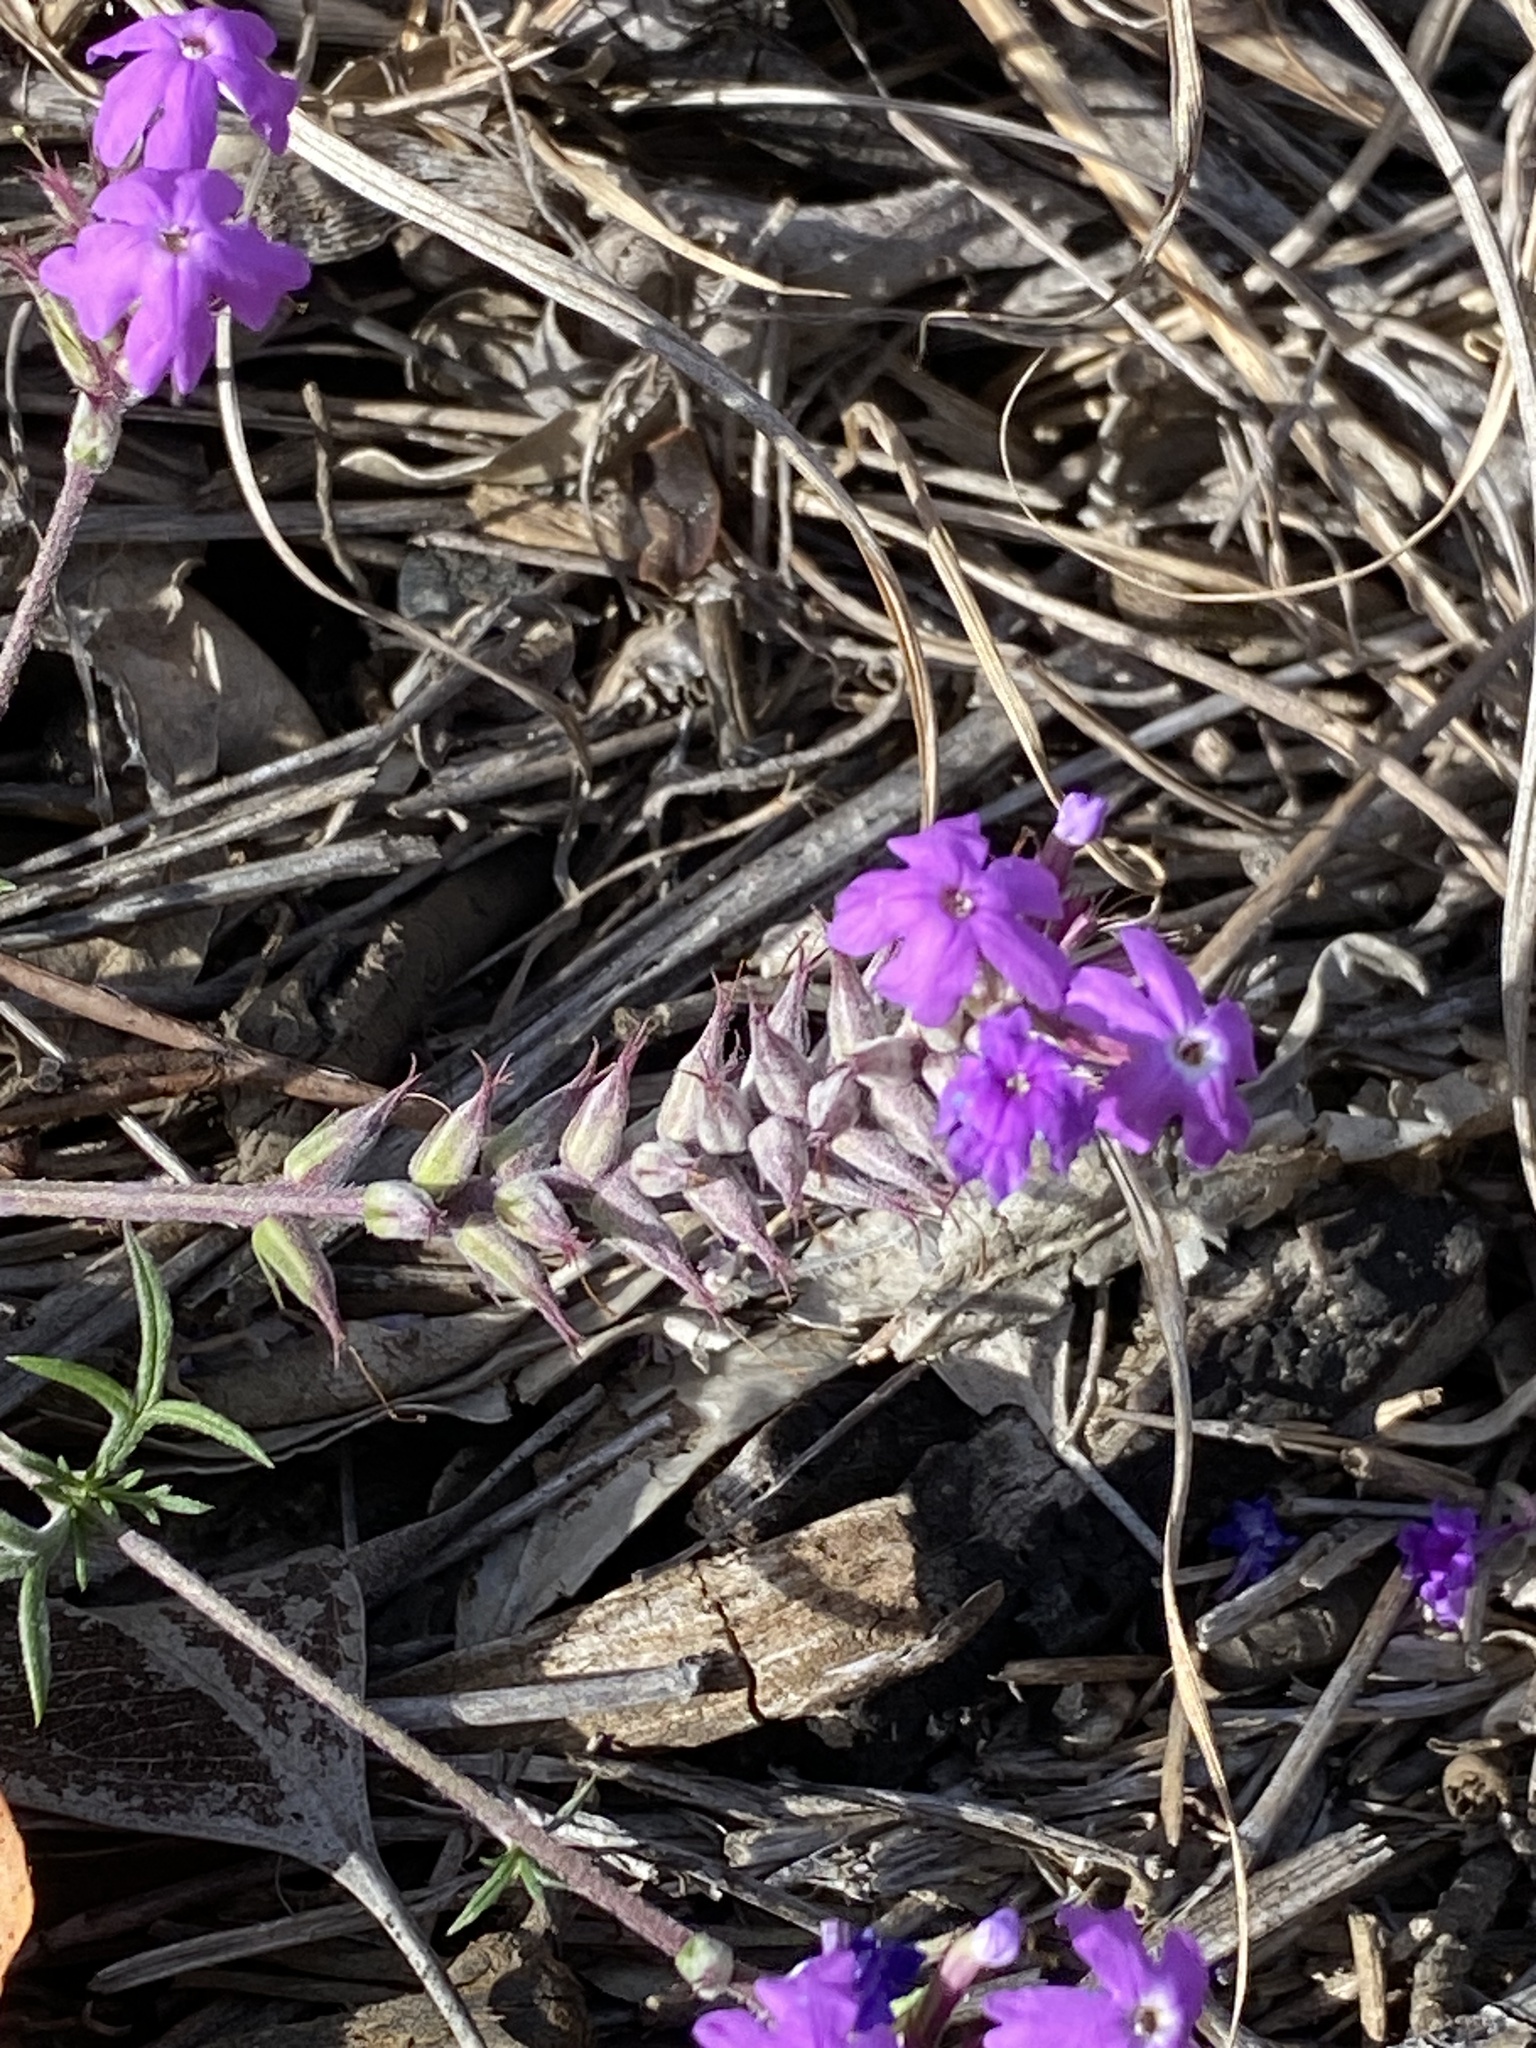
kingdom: Plantae
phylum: Tracheophyta
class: Magnoliopsida
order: Lamiales
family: Verbenaceae
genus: Verbena
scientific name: Verbena aristigera
